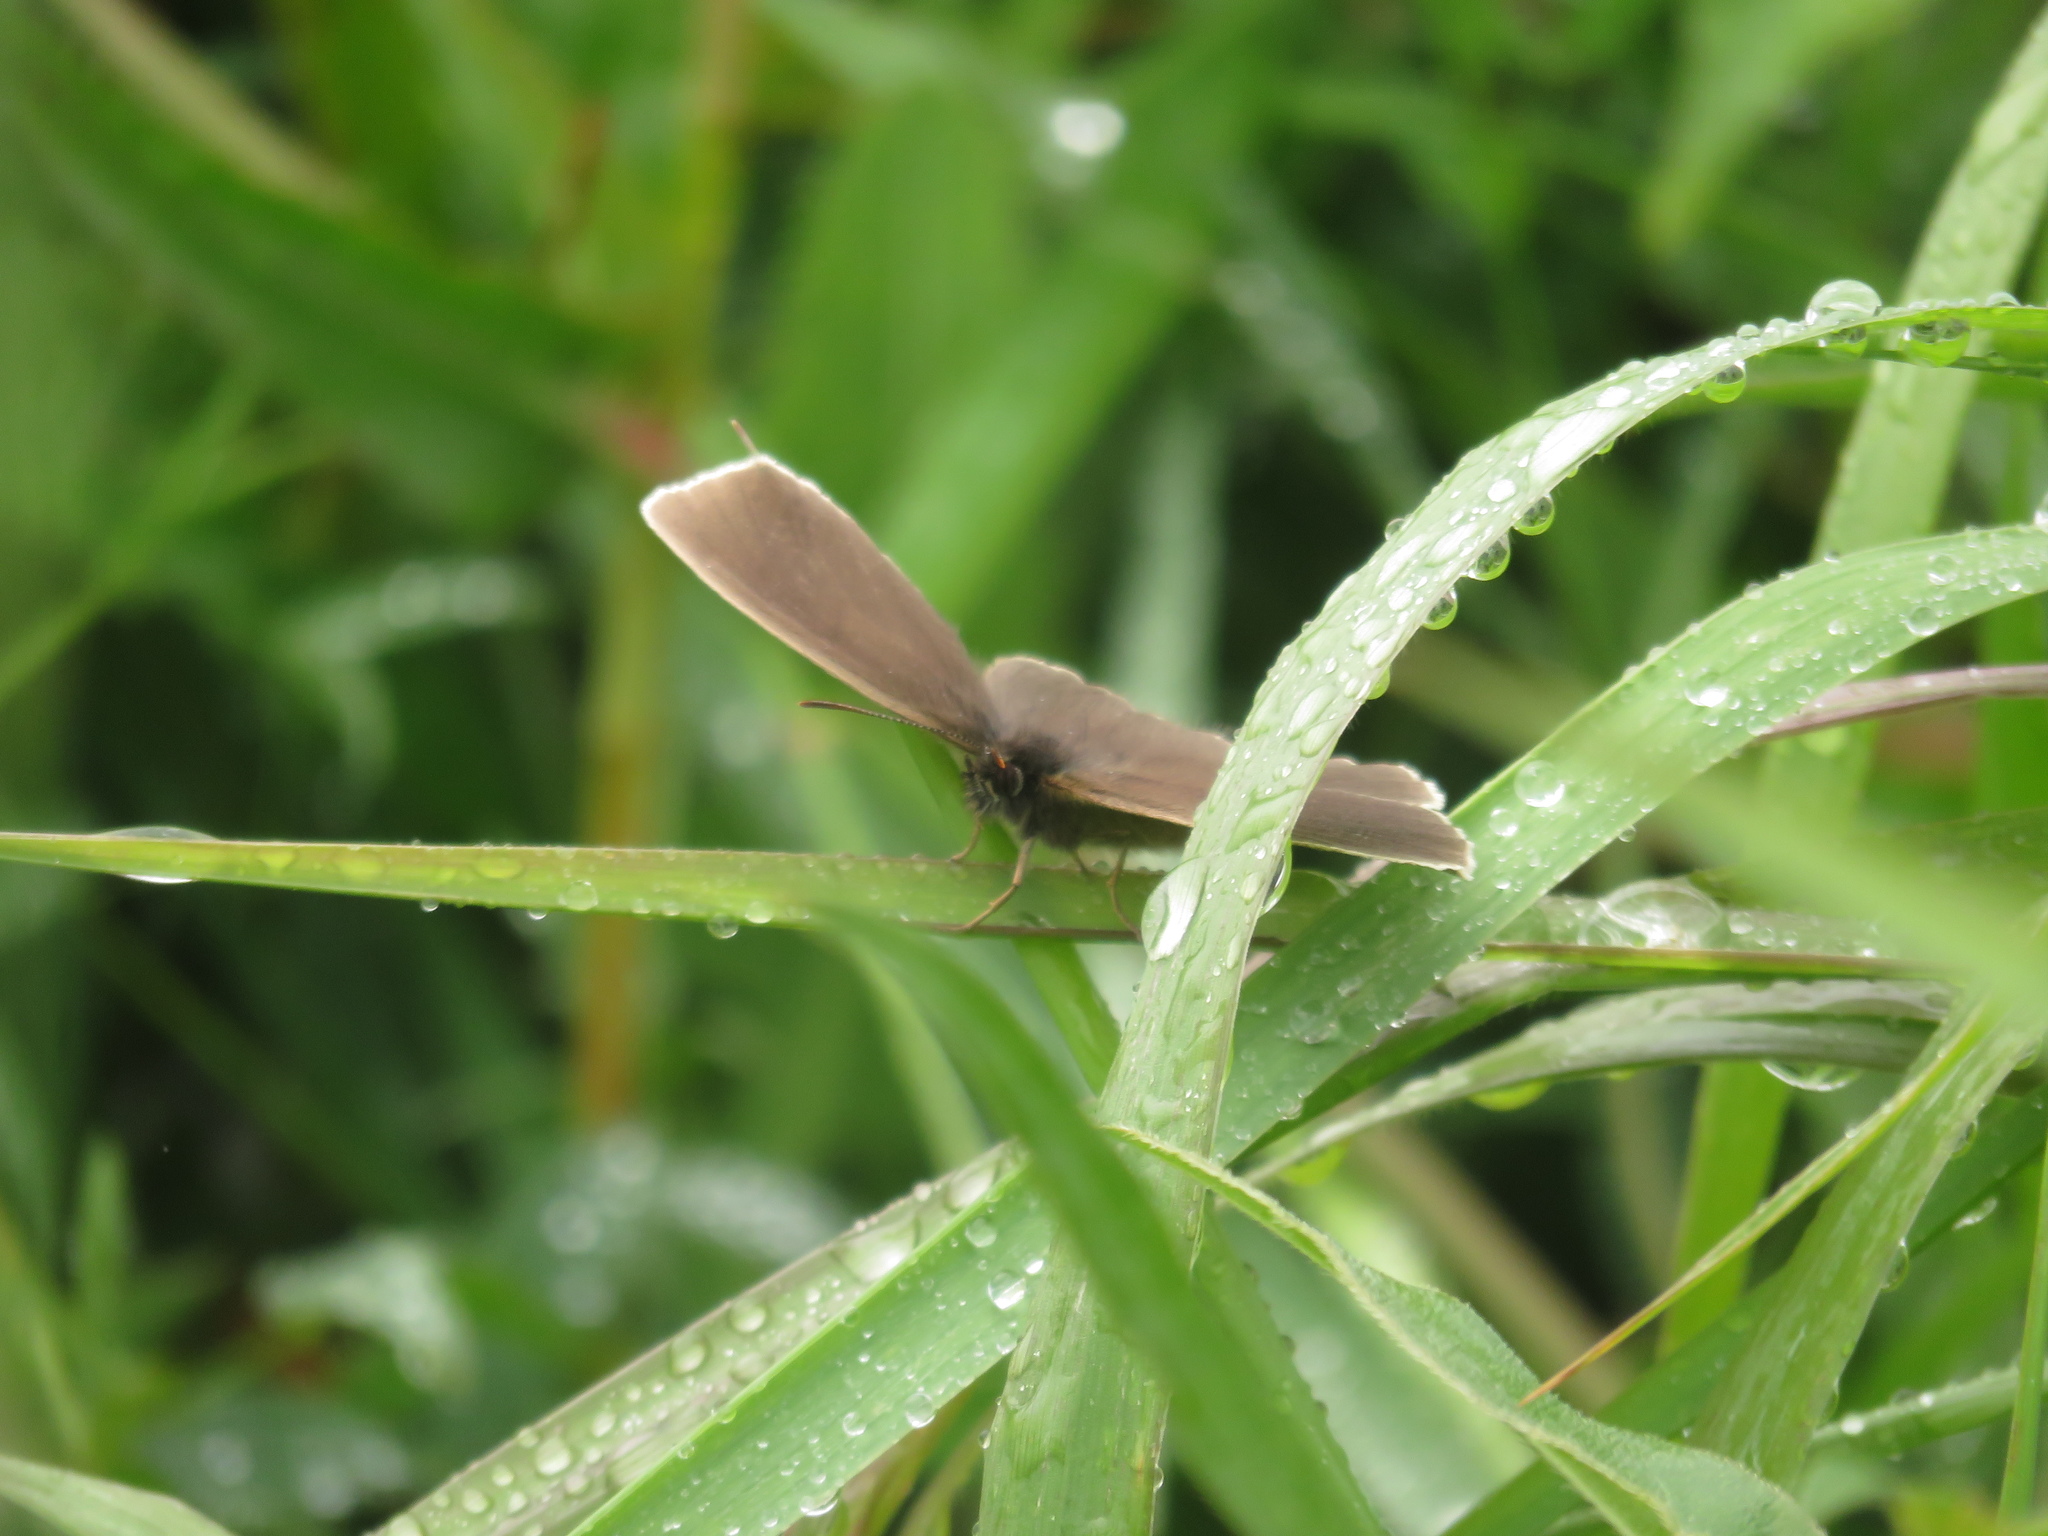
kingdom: Animalia
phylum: Arthropoda
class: Insecta
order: Lepidoptera
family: Nymphalidae
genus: Aphantopus
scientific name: Aphantopus hyperantus
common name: Ringlet
